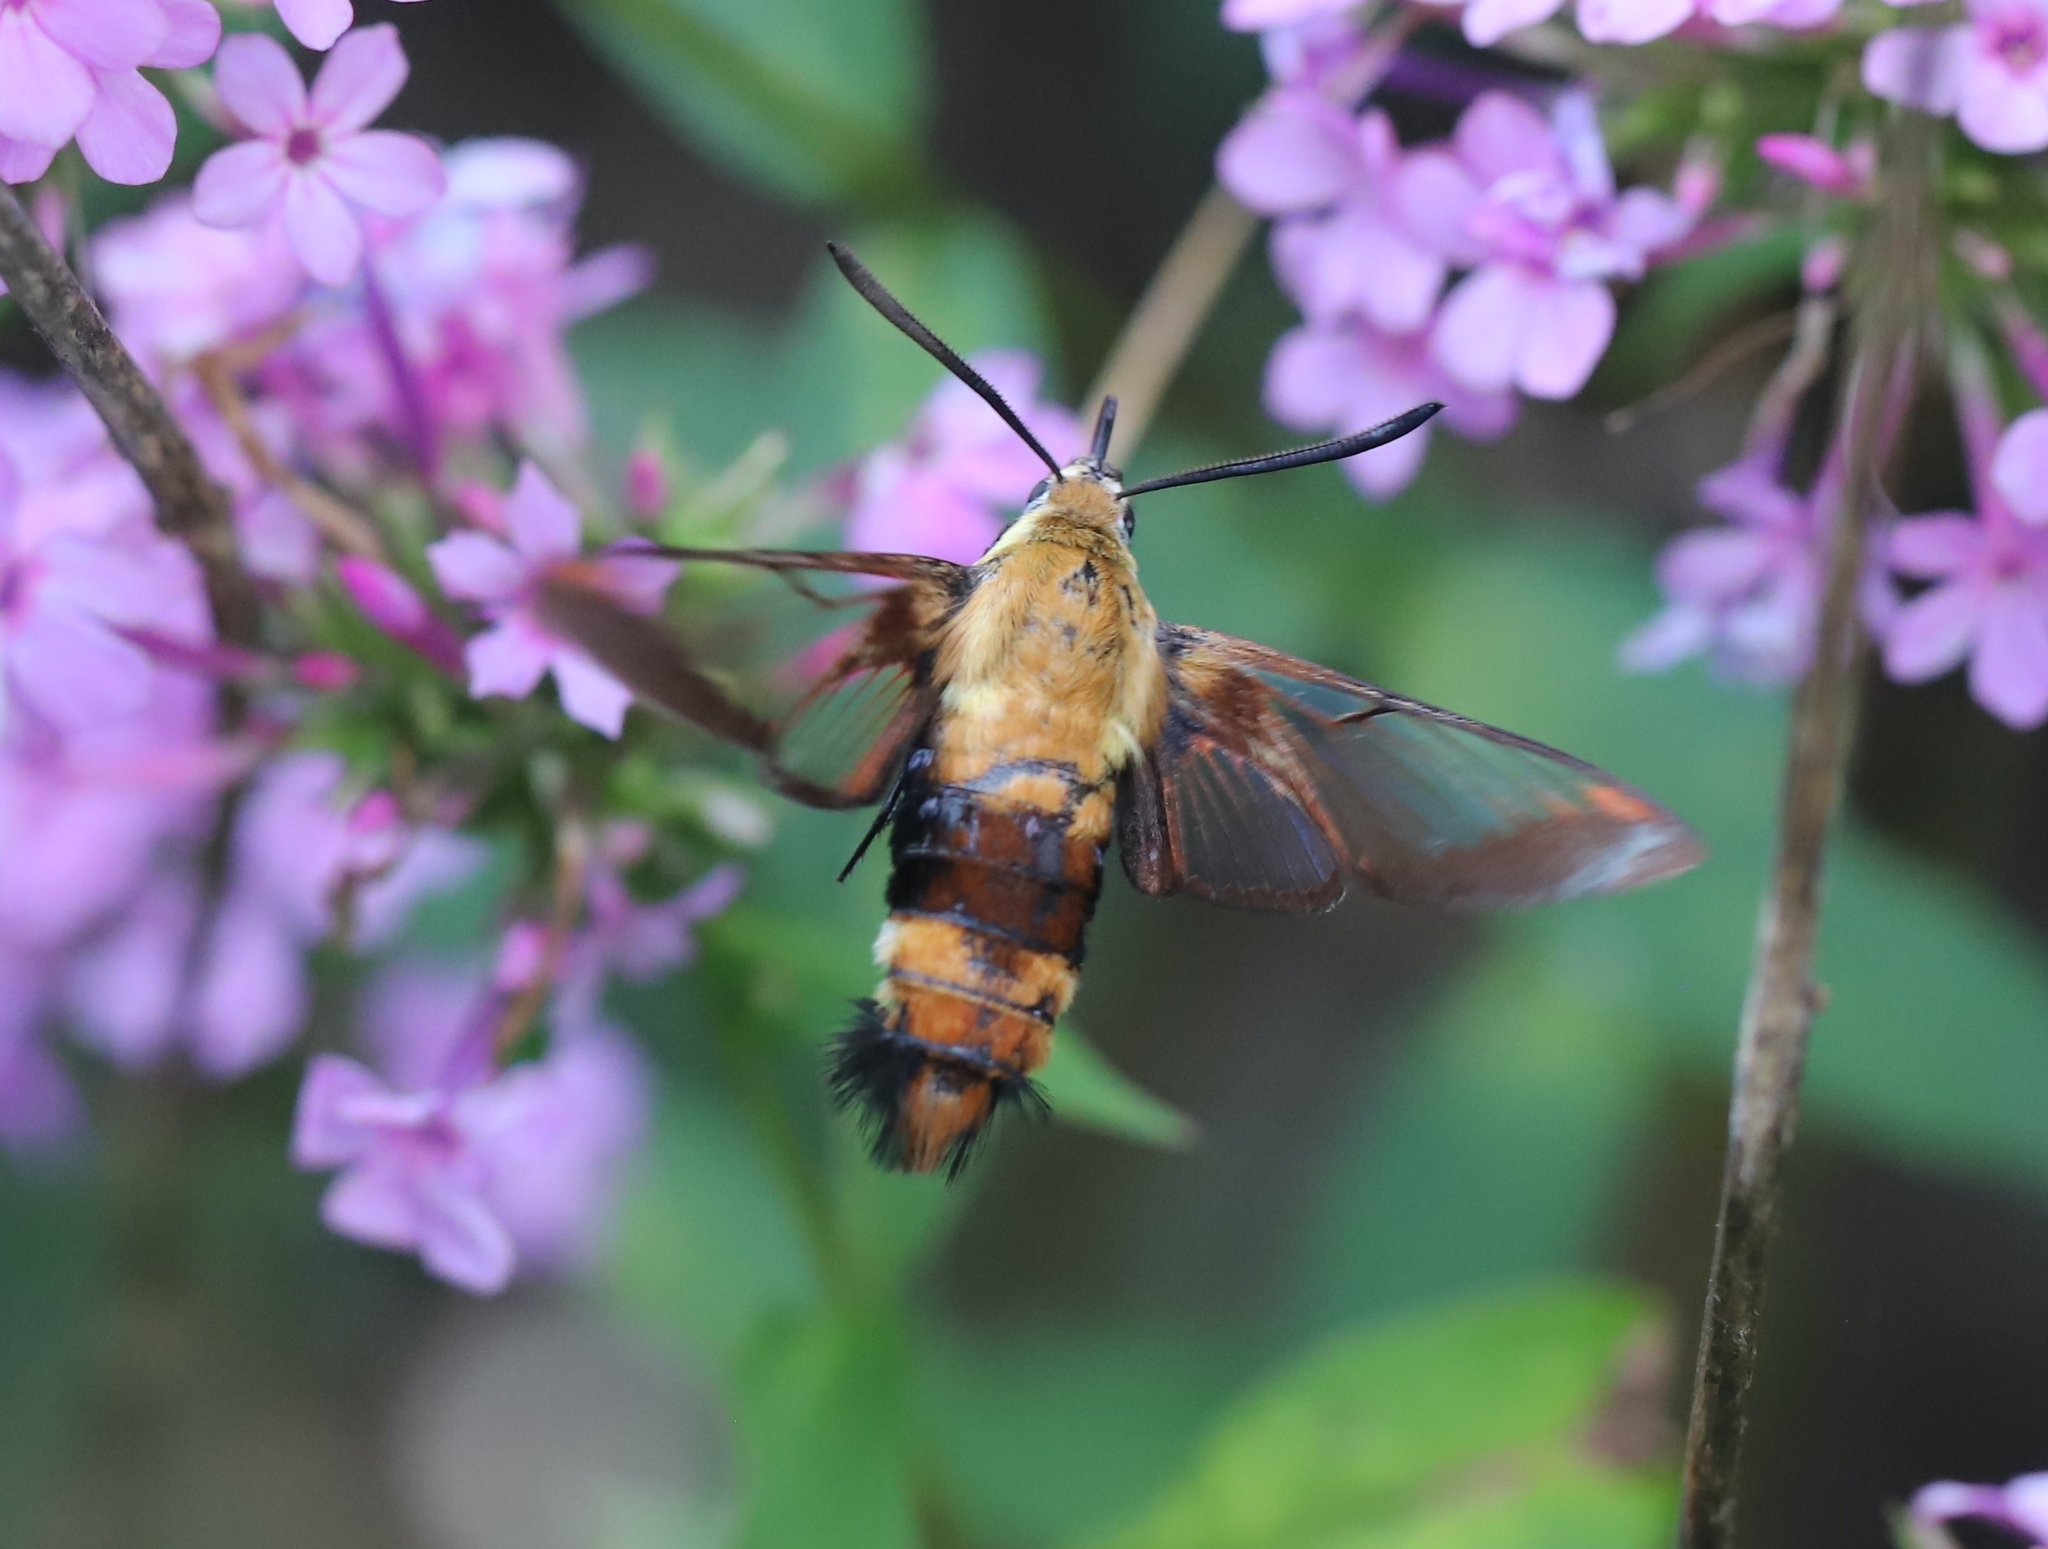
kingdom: Animalia
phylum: Arthropoda
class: Insecta
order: Lepidoptera
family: Sphingidae
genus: Hemaris
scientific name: Hemaris diffinis
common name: Bumblebee moth
